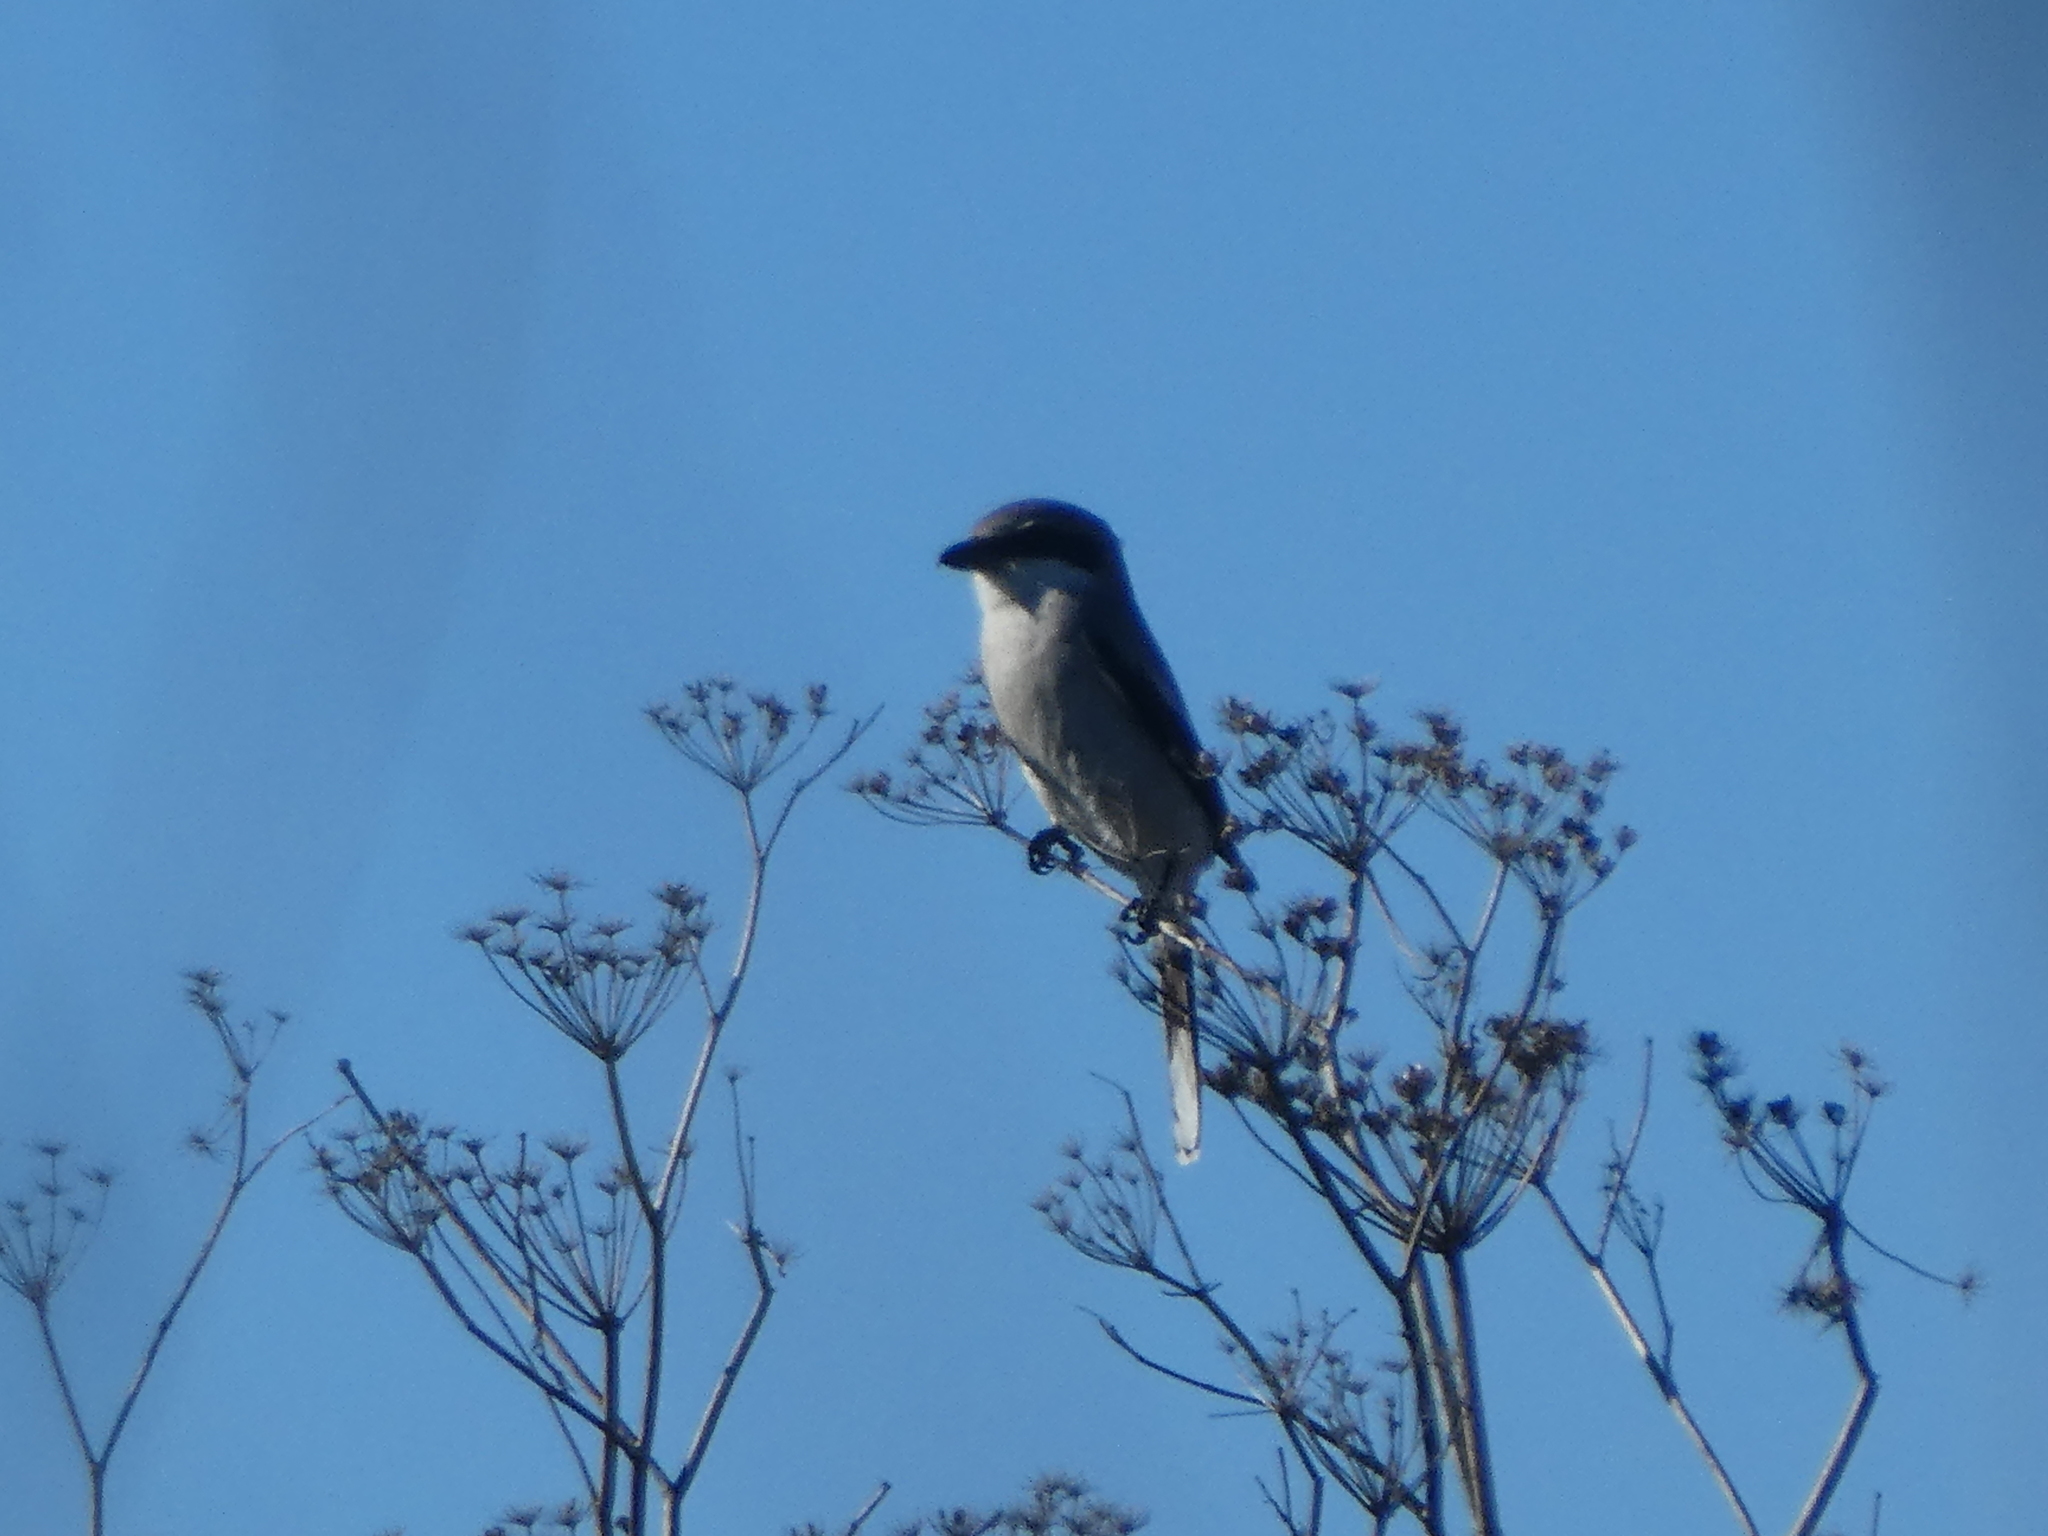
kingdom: Animalia
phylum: Chordata
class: Aves
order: Passeriformes
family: Laniidae
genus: Lanius
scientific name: Lanius ludovicianus
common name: Loggerhead shrike
